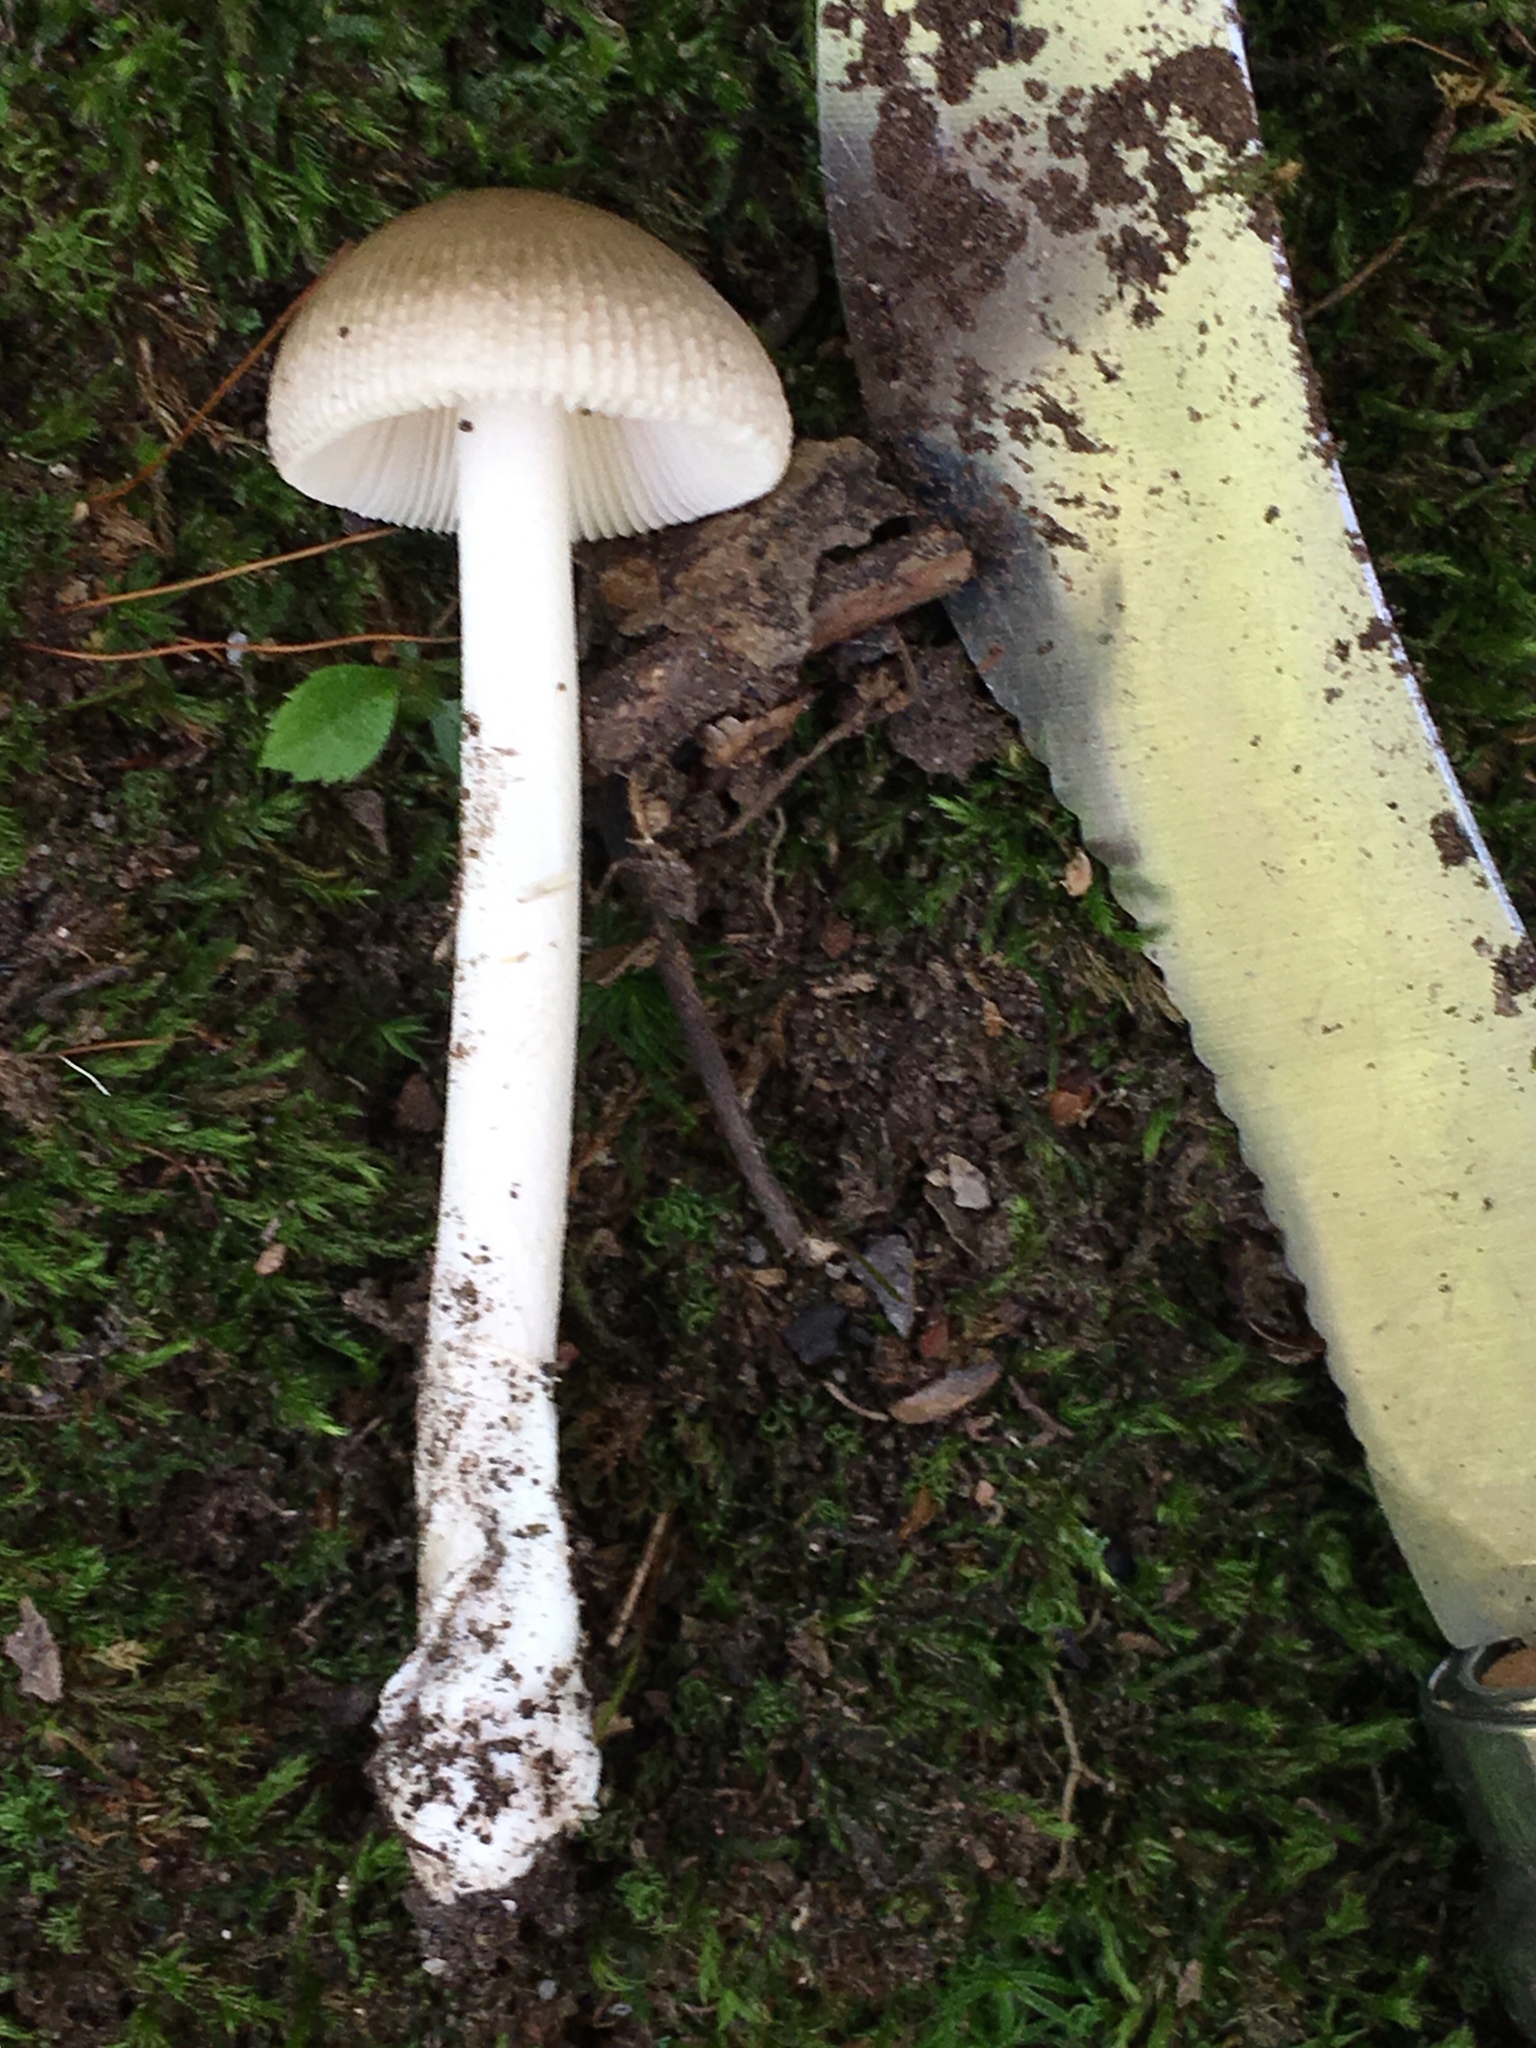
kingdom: Fungi
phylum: Basidiomycota
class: Agaricomycetes
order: Agaricales
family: Amanitaceae
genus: Amanita
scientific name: Amanita fulva
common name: Tawny grisette
